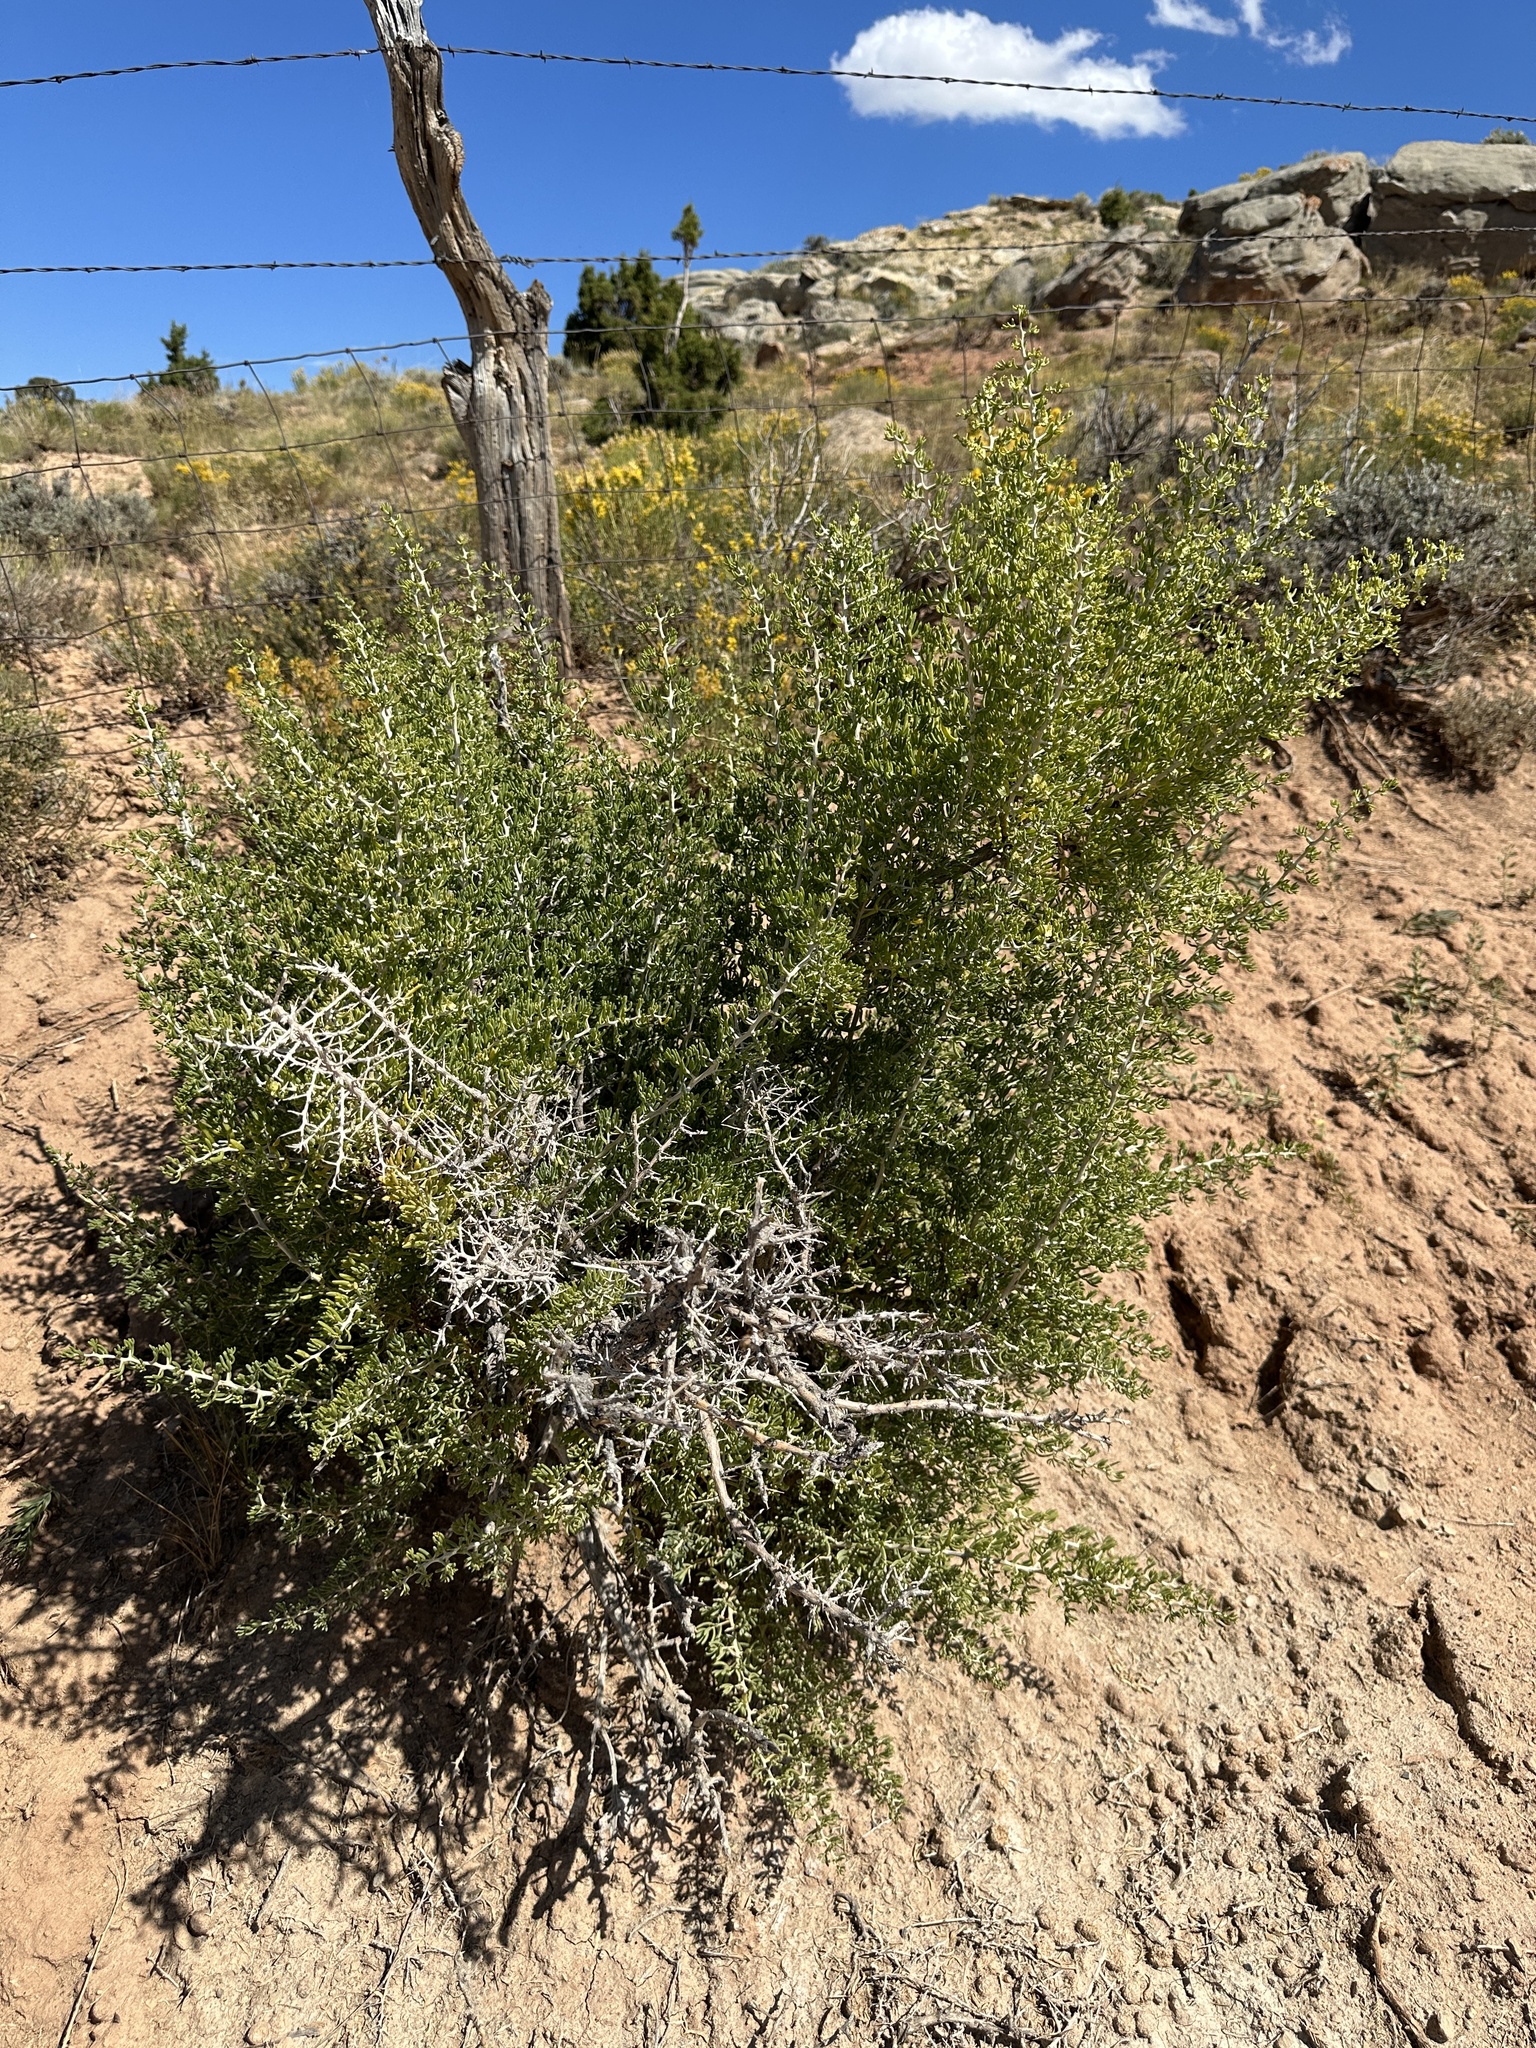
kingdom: Plantae
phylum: Tracheophyta
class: Magnoliopsida
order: Caryophyllales
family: Sarcobataceae
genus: Sarcobatus
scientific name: Sarcobatus vermiculatus
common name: Greasewood
